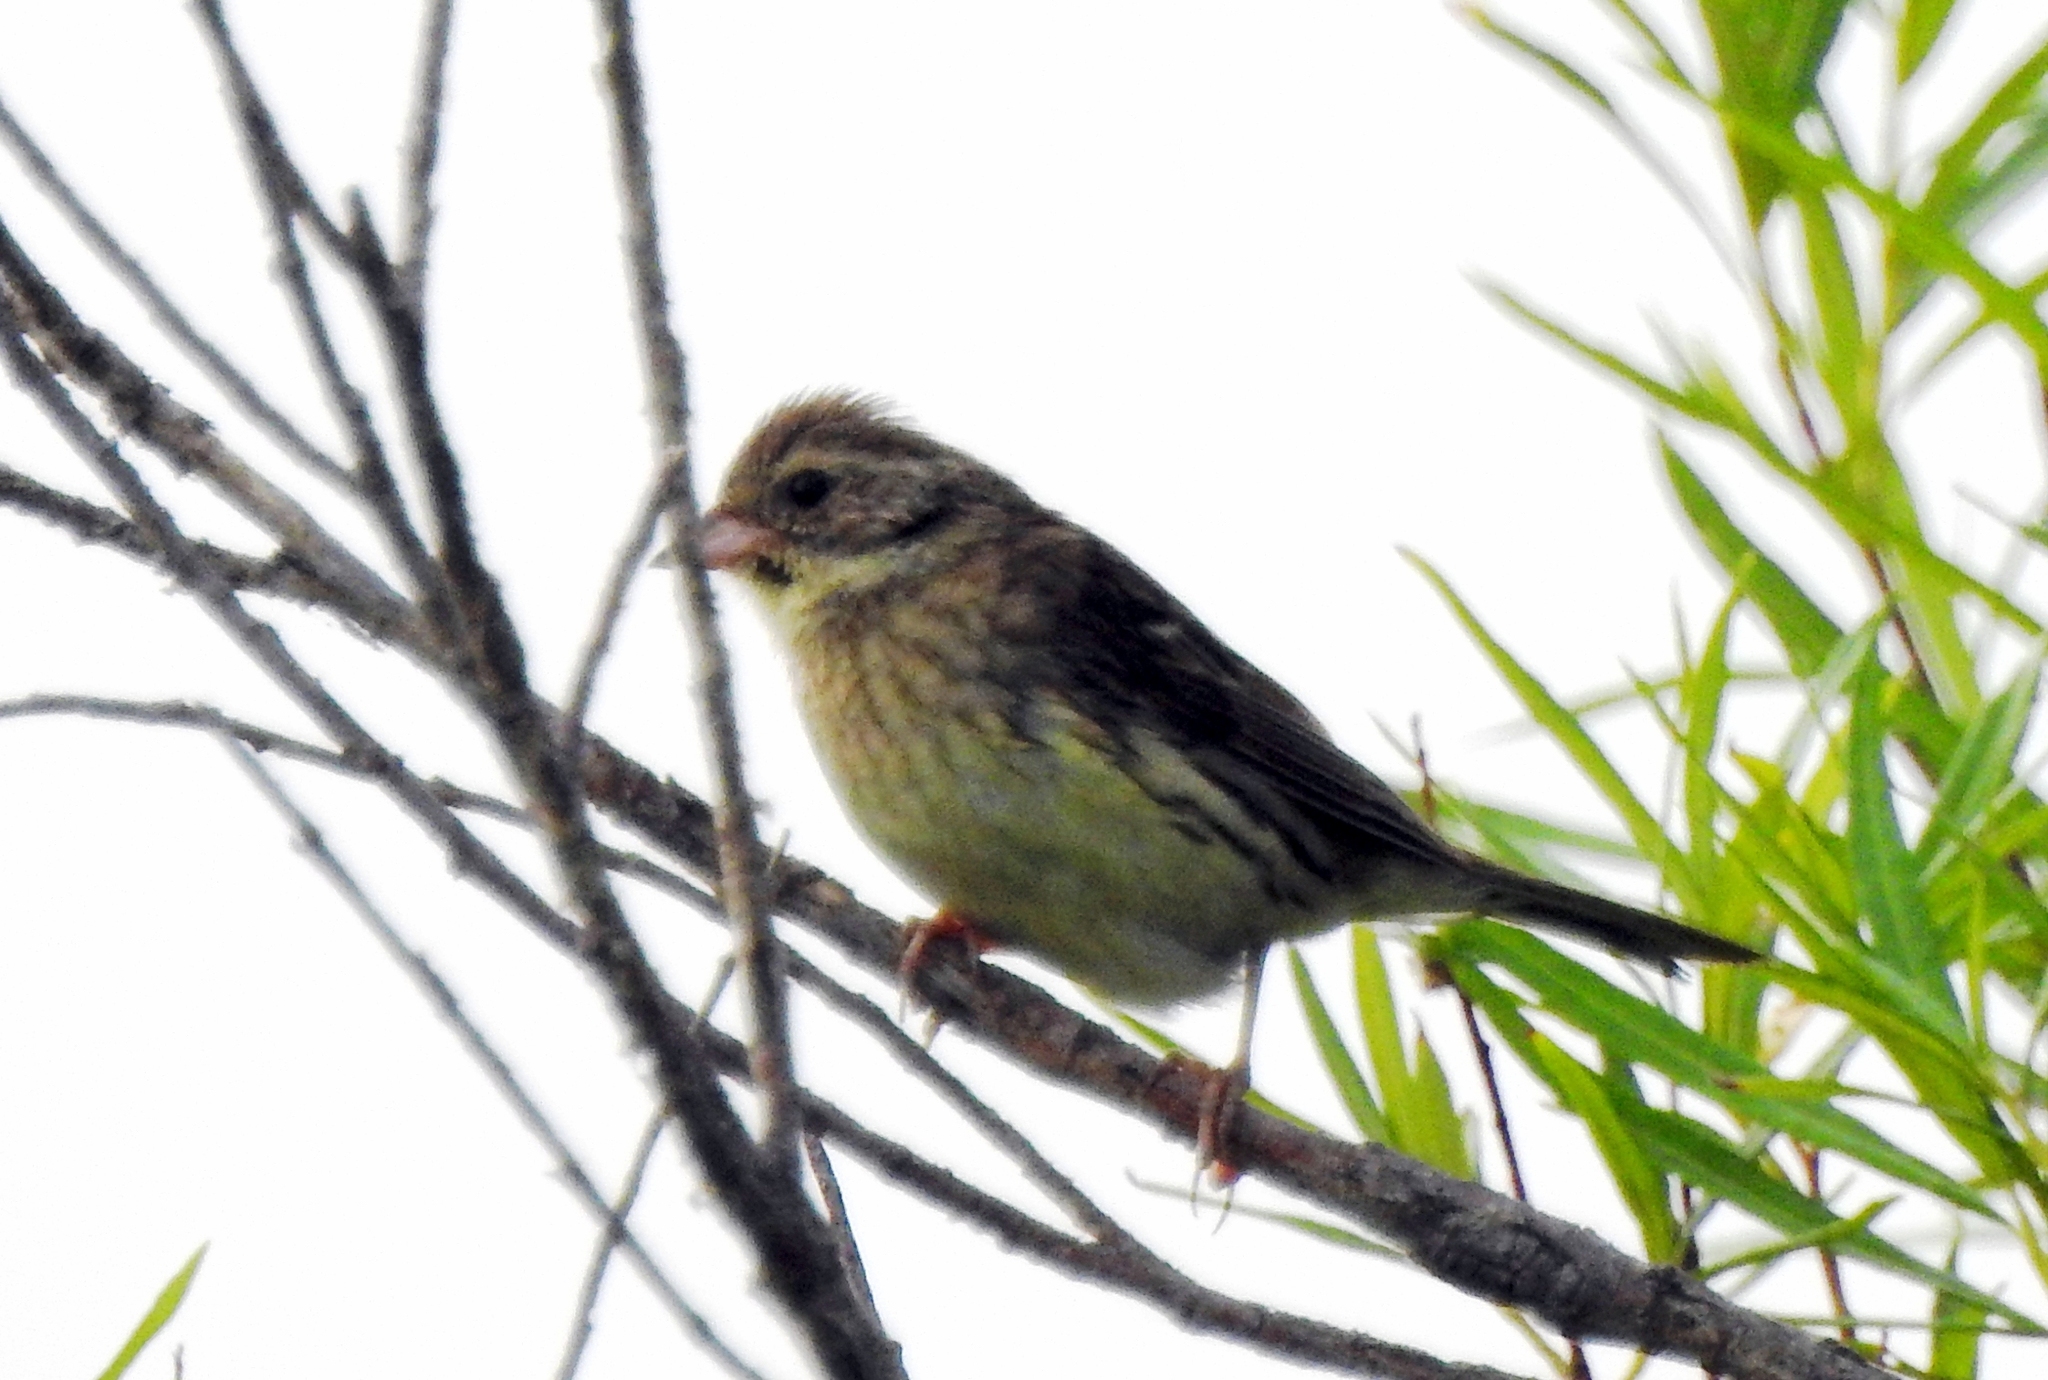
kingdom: Animalia
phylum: Chordata
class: Aves
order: Passeriformes
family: Emberizidae
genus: Emberiza
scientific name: Emberiza aureola
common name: Yellow-breasted bunting
